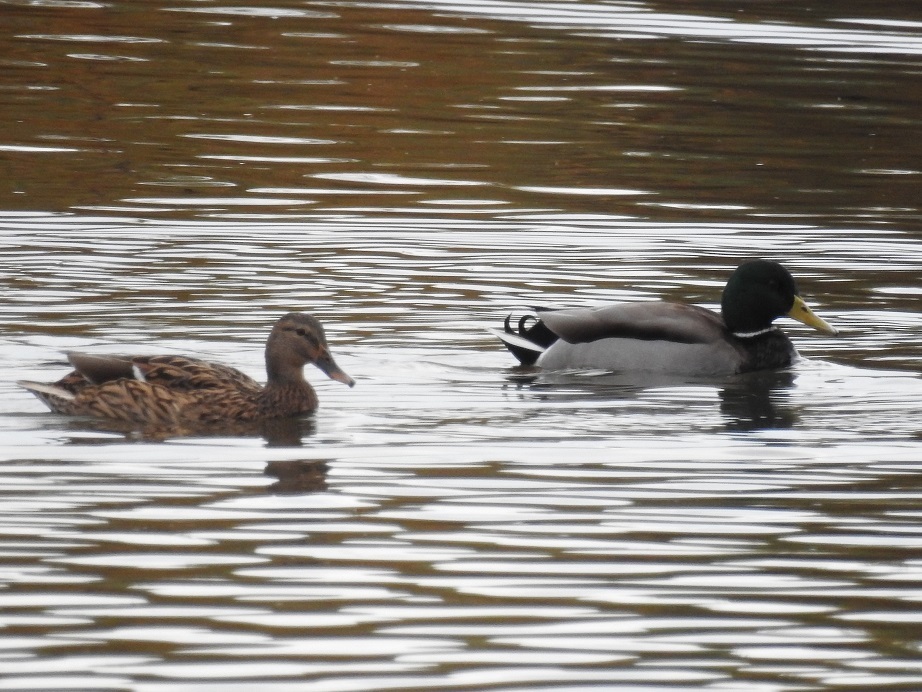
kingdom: Animalia
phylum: Chordata
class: Aves
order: Anseriformes
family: Anatidae
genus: Anas
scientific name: Anas platyrhynchos
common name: Mallard
